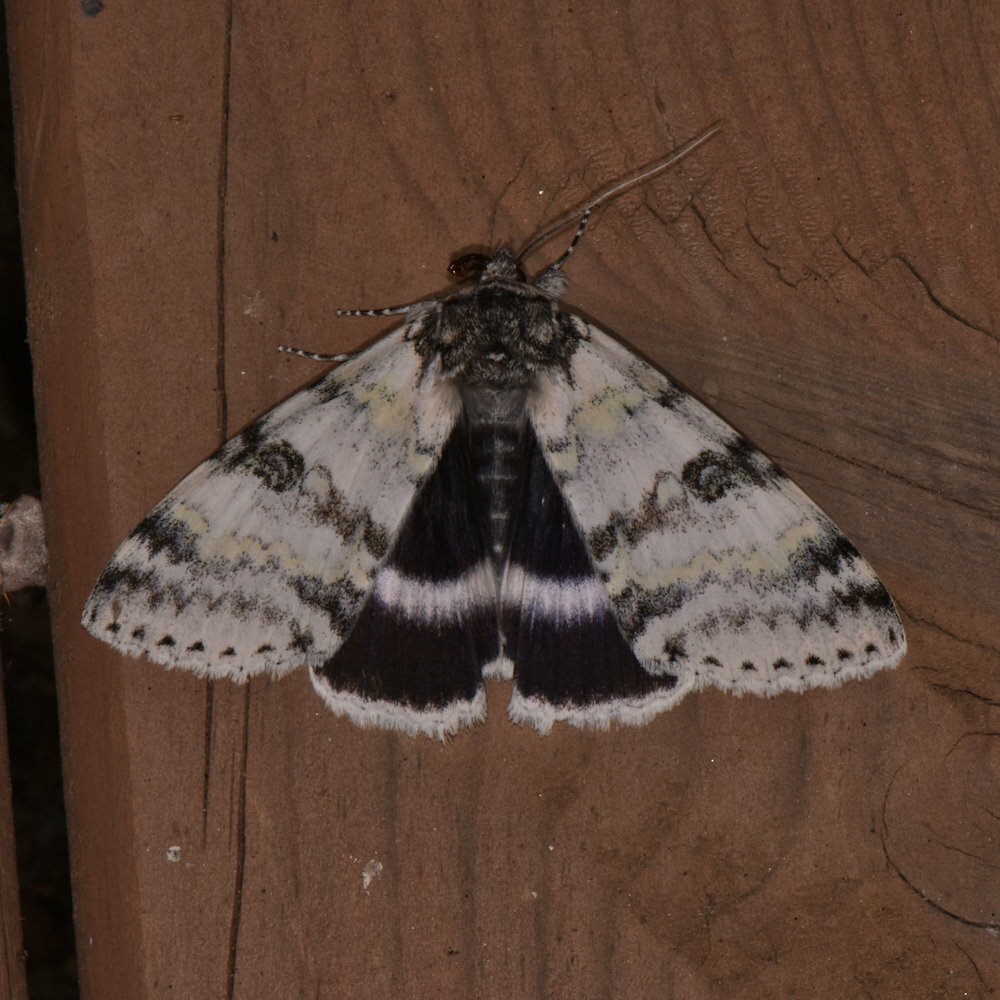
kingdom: Animalia
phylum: Arthropoda
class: Insecta
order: Lepidoptera
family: Erebidae
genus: Catocala
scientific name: Catocala relicta
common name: White underwing
